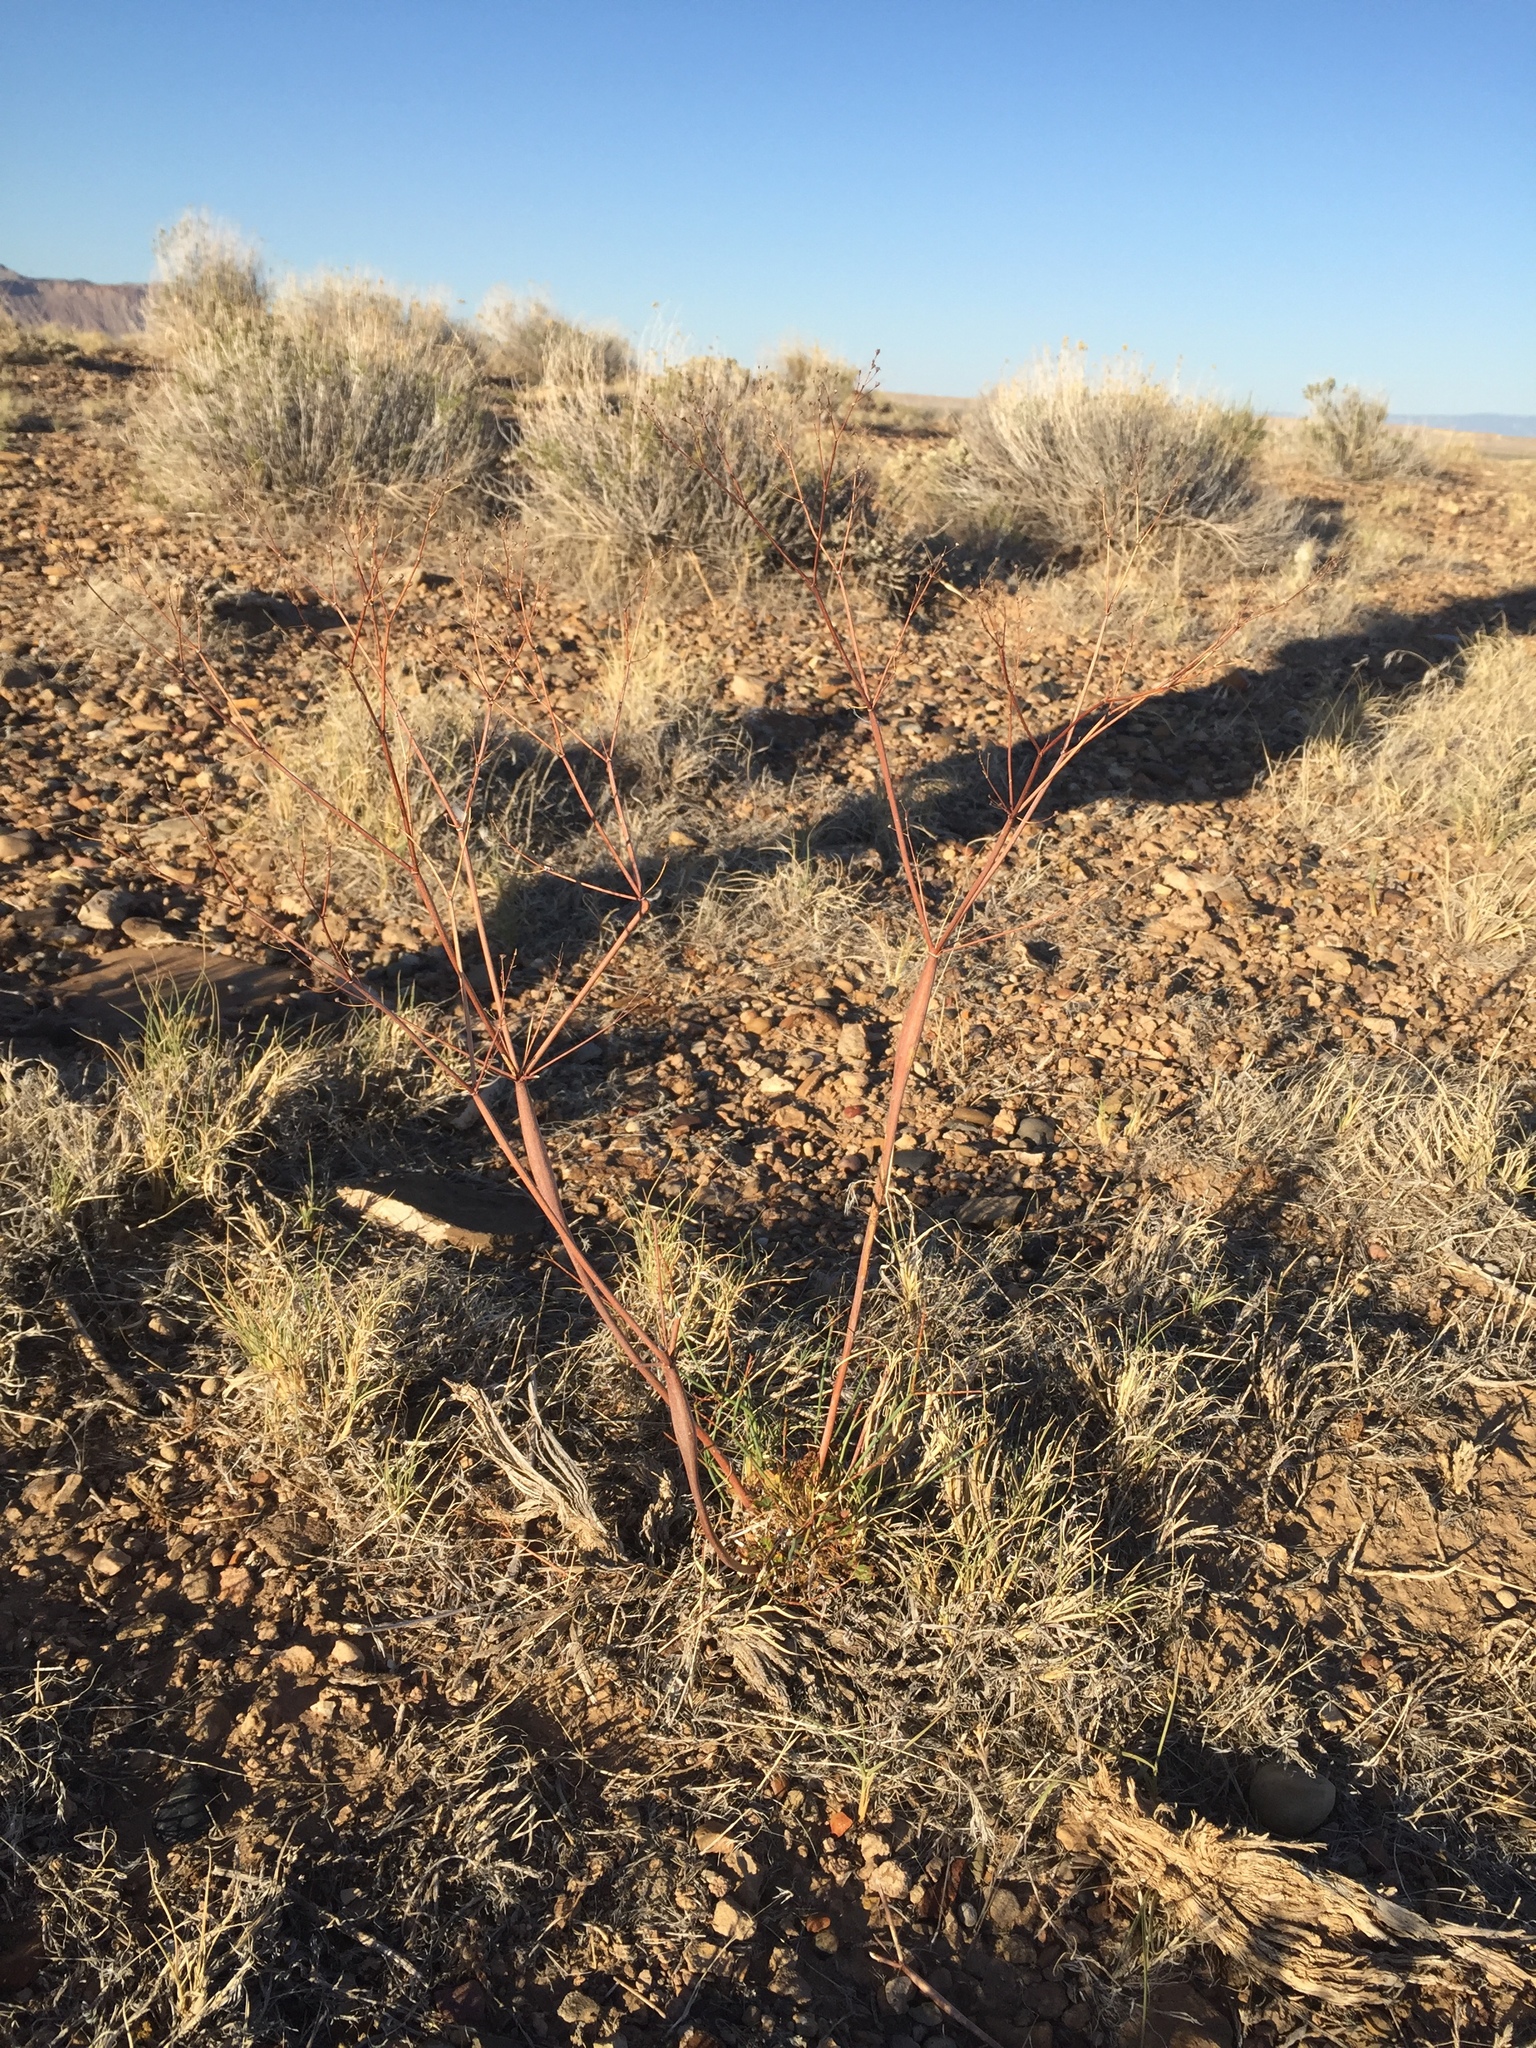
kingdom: Plantae
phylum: Tracheophyta
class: Magnoliopsida
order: Caryophyllales
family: Polygonaceae
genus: Eriogonum
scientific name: Eriogonum inflatum
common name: Desert trumpet
